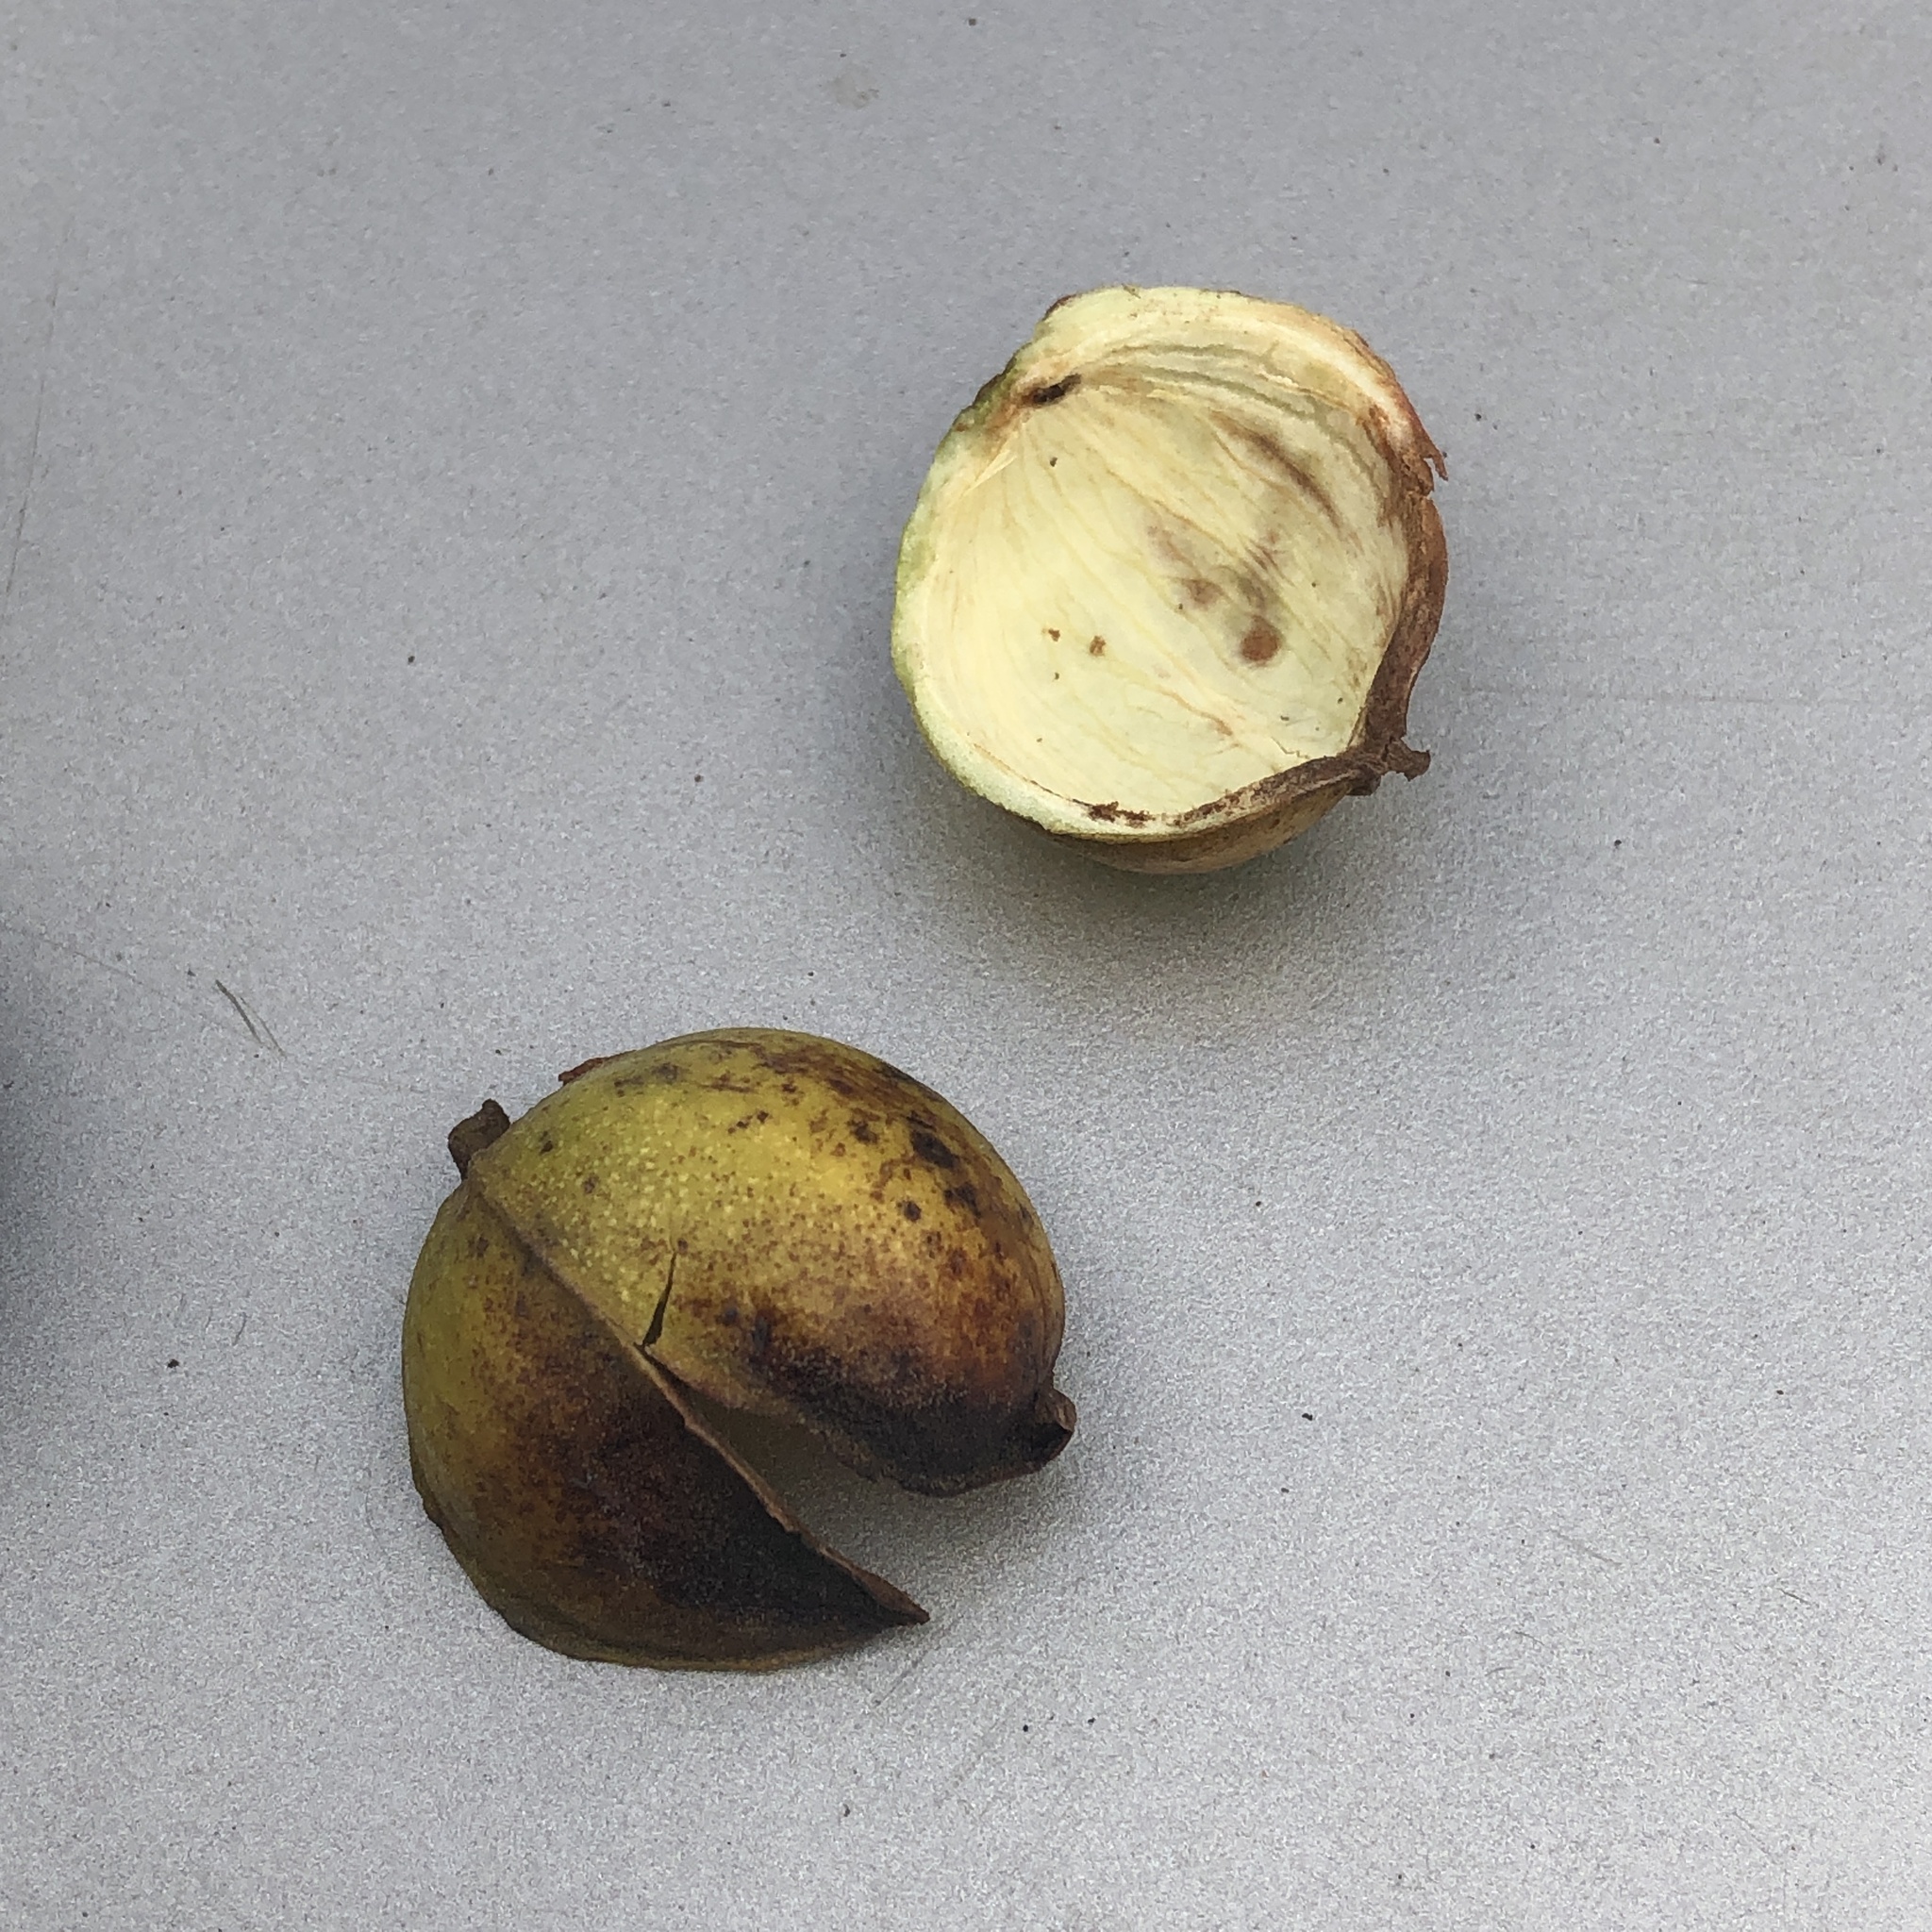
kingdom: Plantae
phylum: Tracheophyta
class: Magnoliopsida
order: Fagales
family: Juglandaceae
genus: Carya
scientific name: Carya cordiformis
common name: Bitternut hickory
